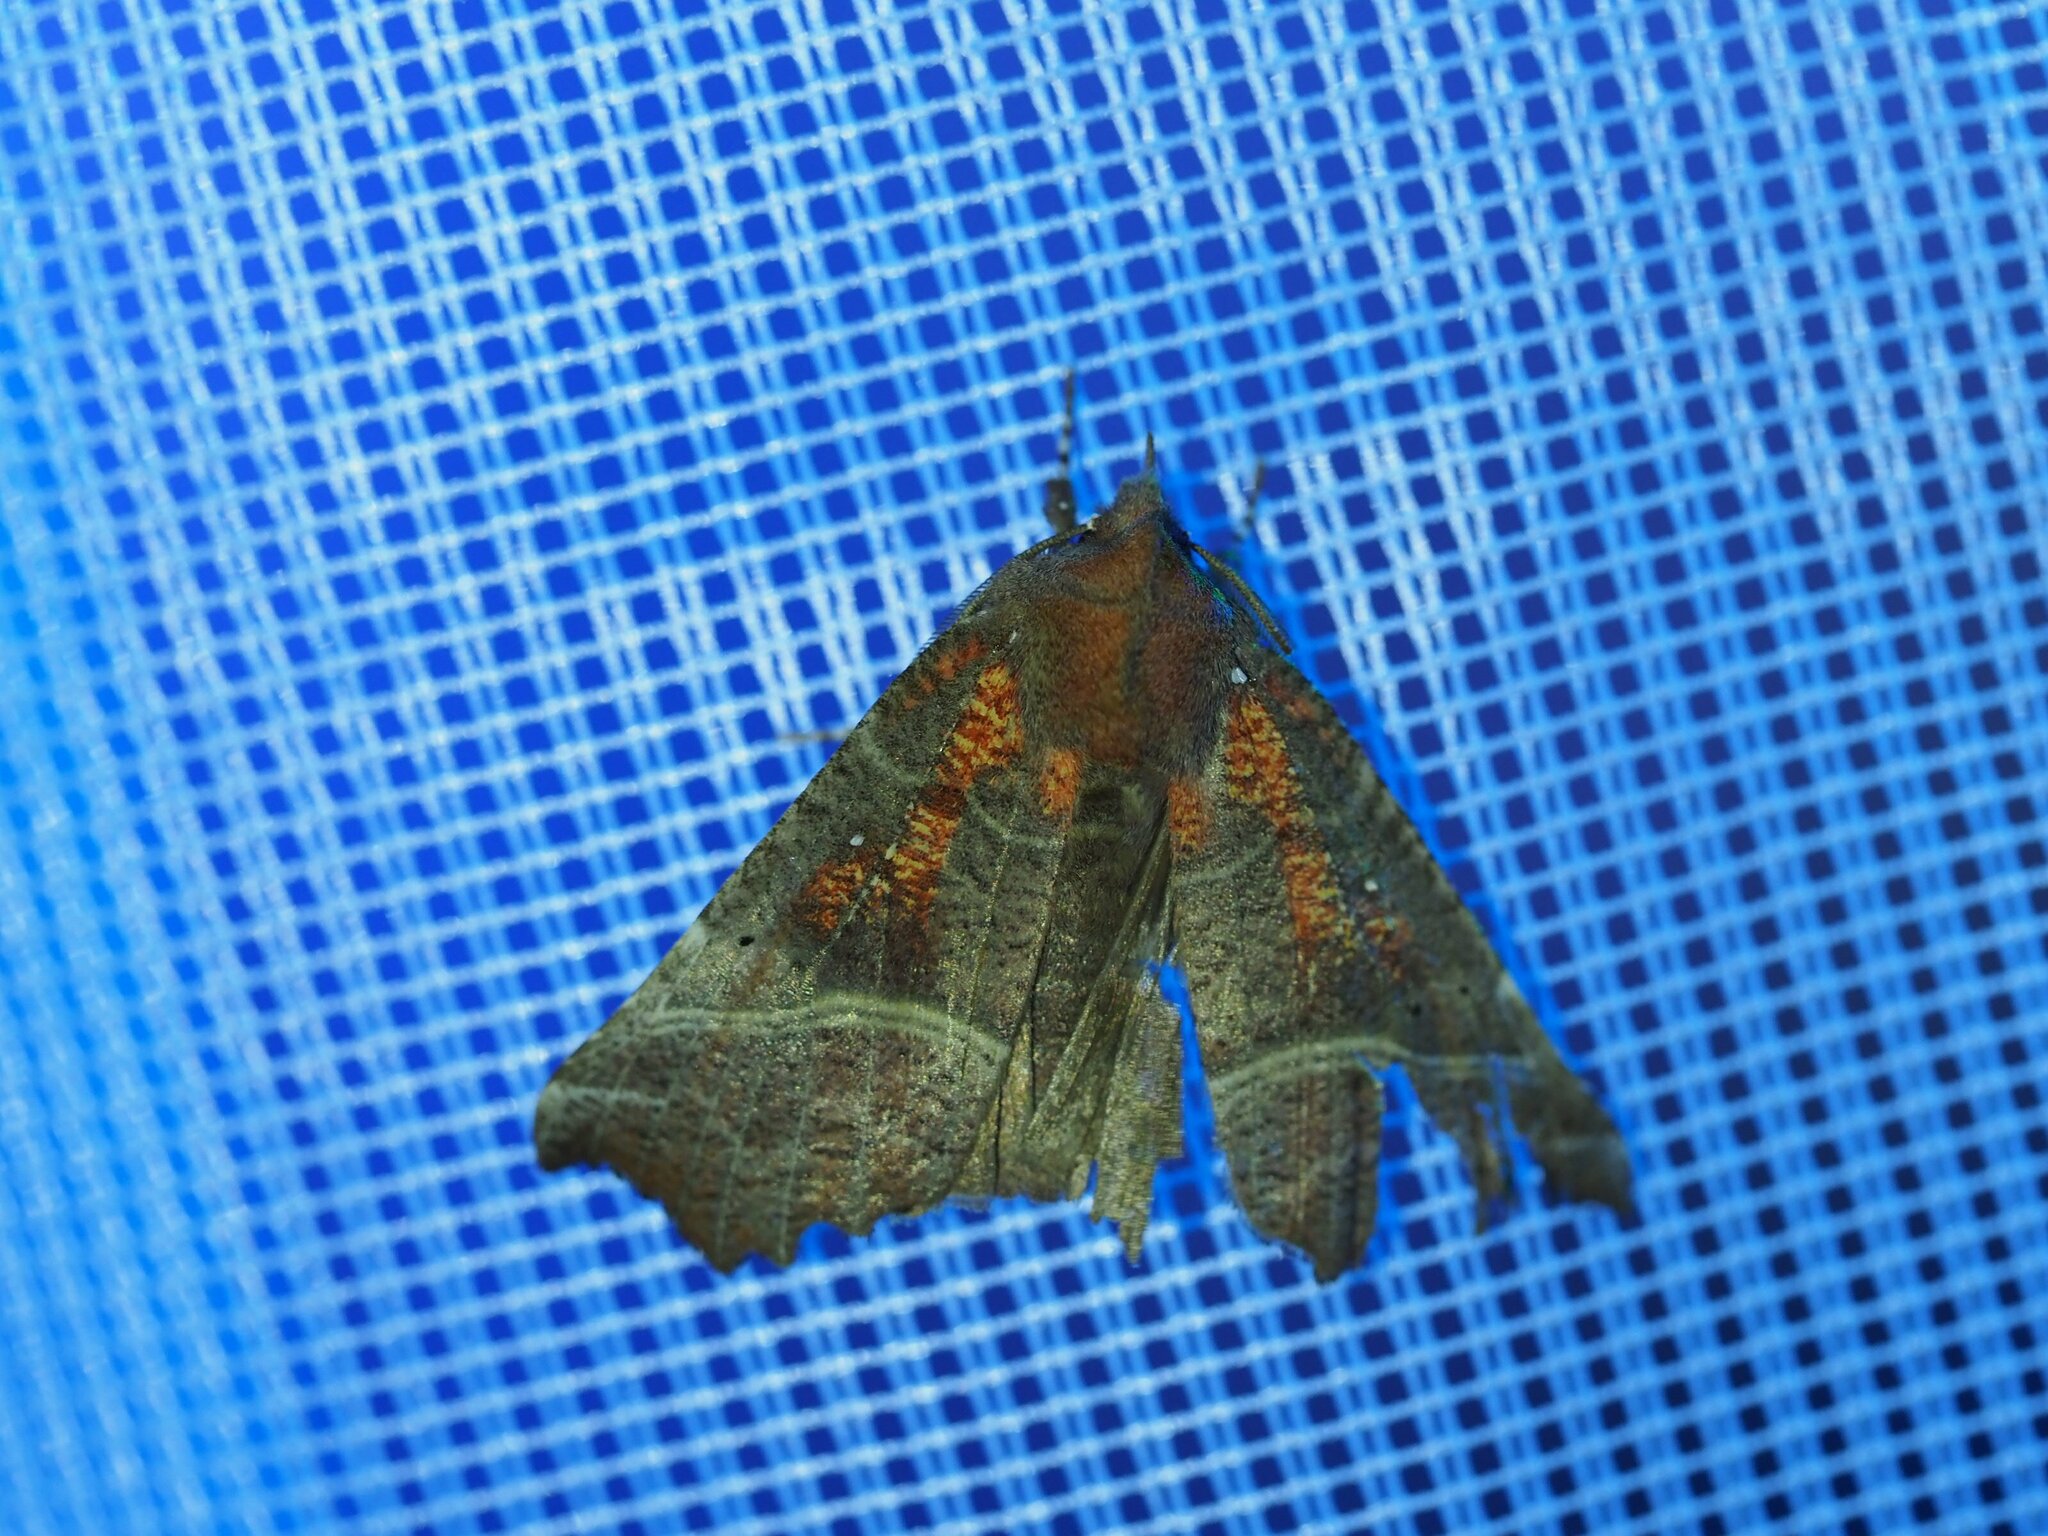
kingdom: Animalia
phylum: Arthropoda
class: Insecta
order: Lepidoptera
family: Erebidae
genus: Scoliopteryx
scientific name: Scoliopteryx libatrix
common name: Herald
